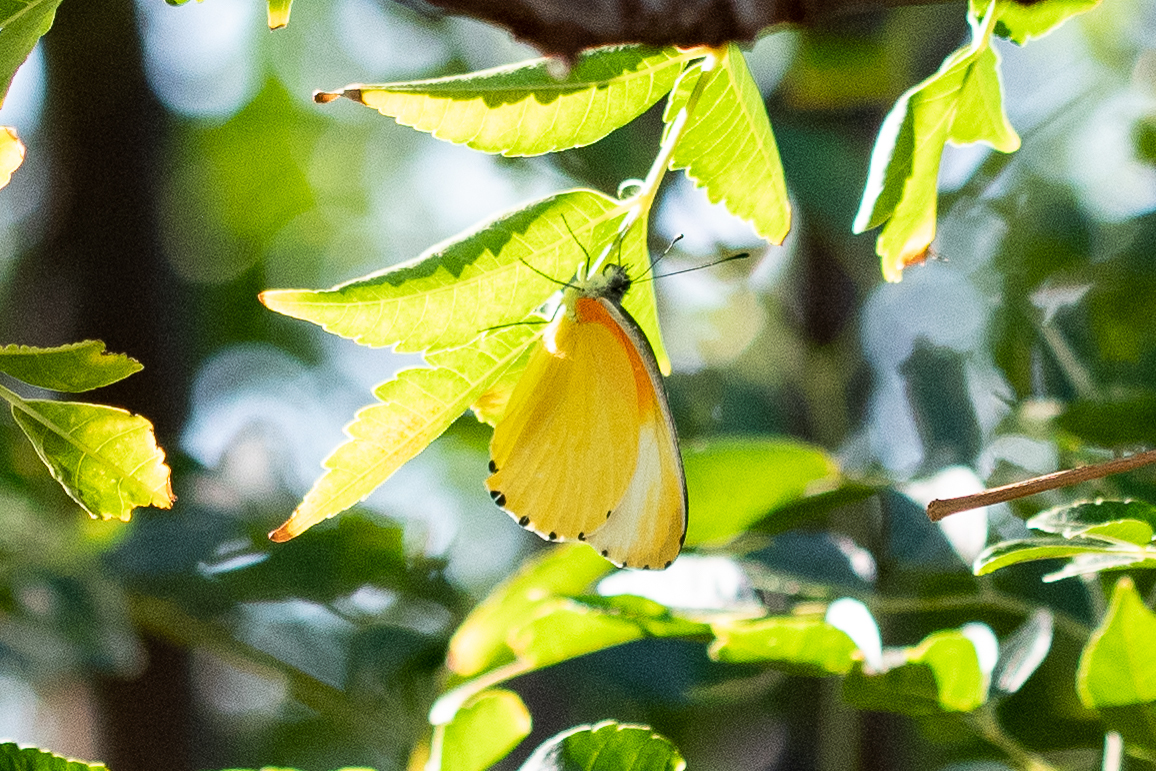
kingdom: Animalia
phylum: Arthropoda
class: Insecta
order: Lepidoptera
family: Pieridae
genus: Mylothris
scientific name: Mylothris agathina
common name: Eastern dotted border
